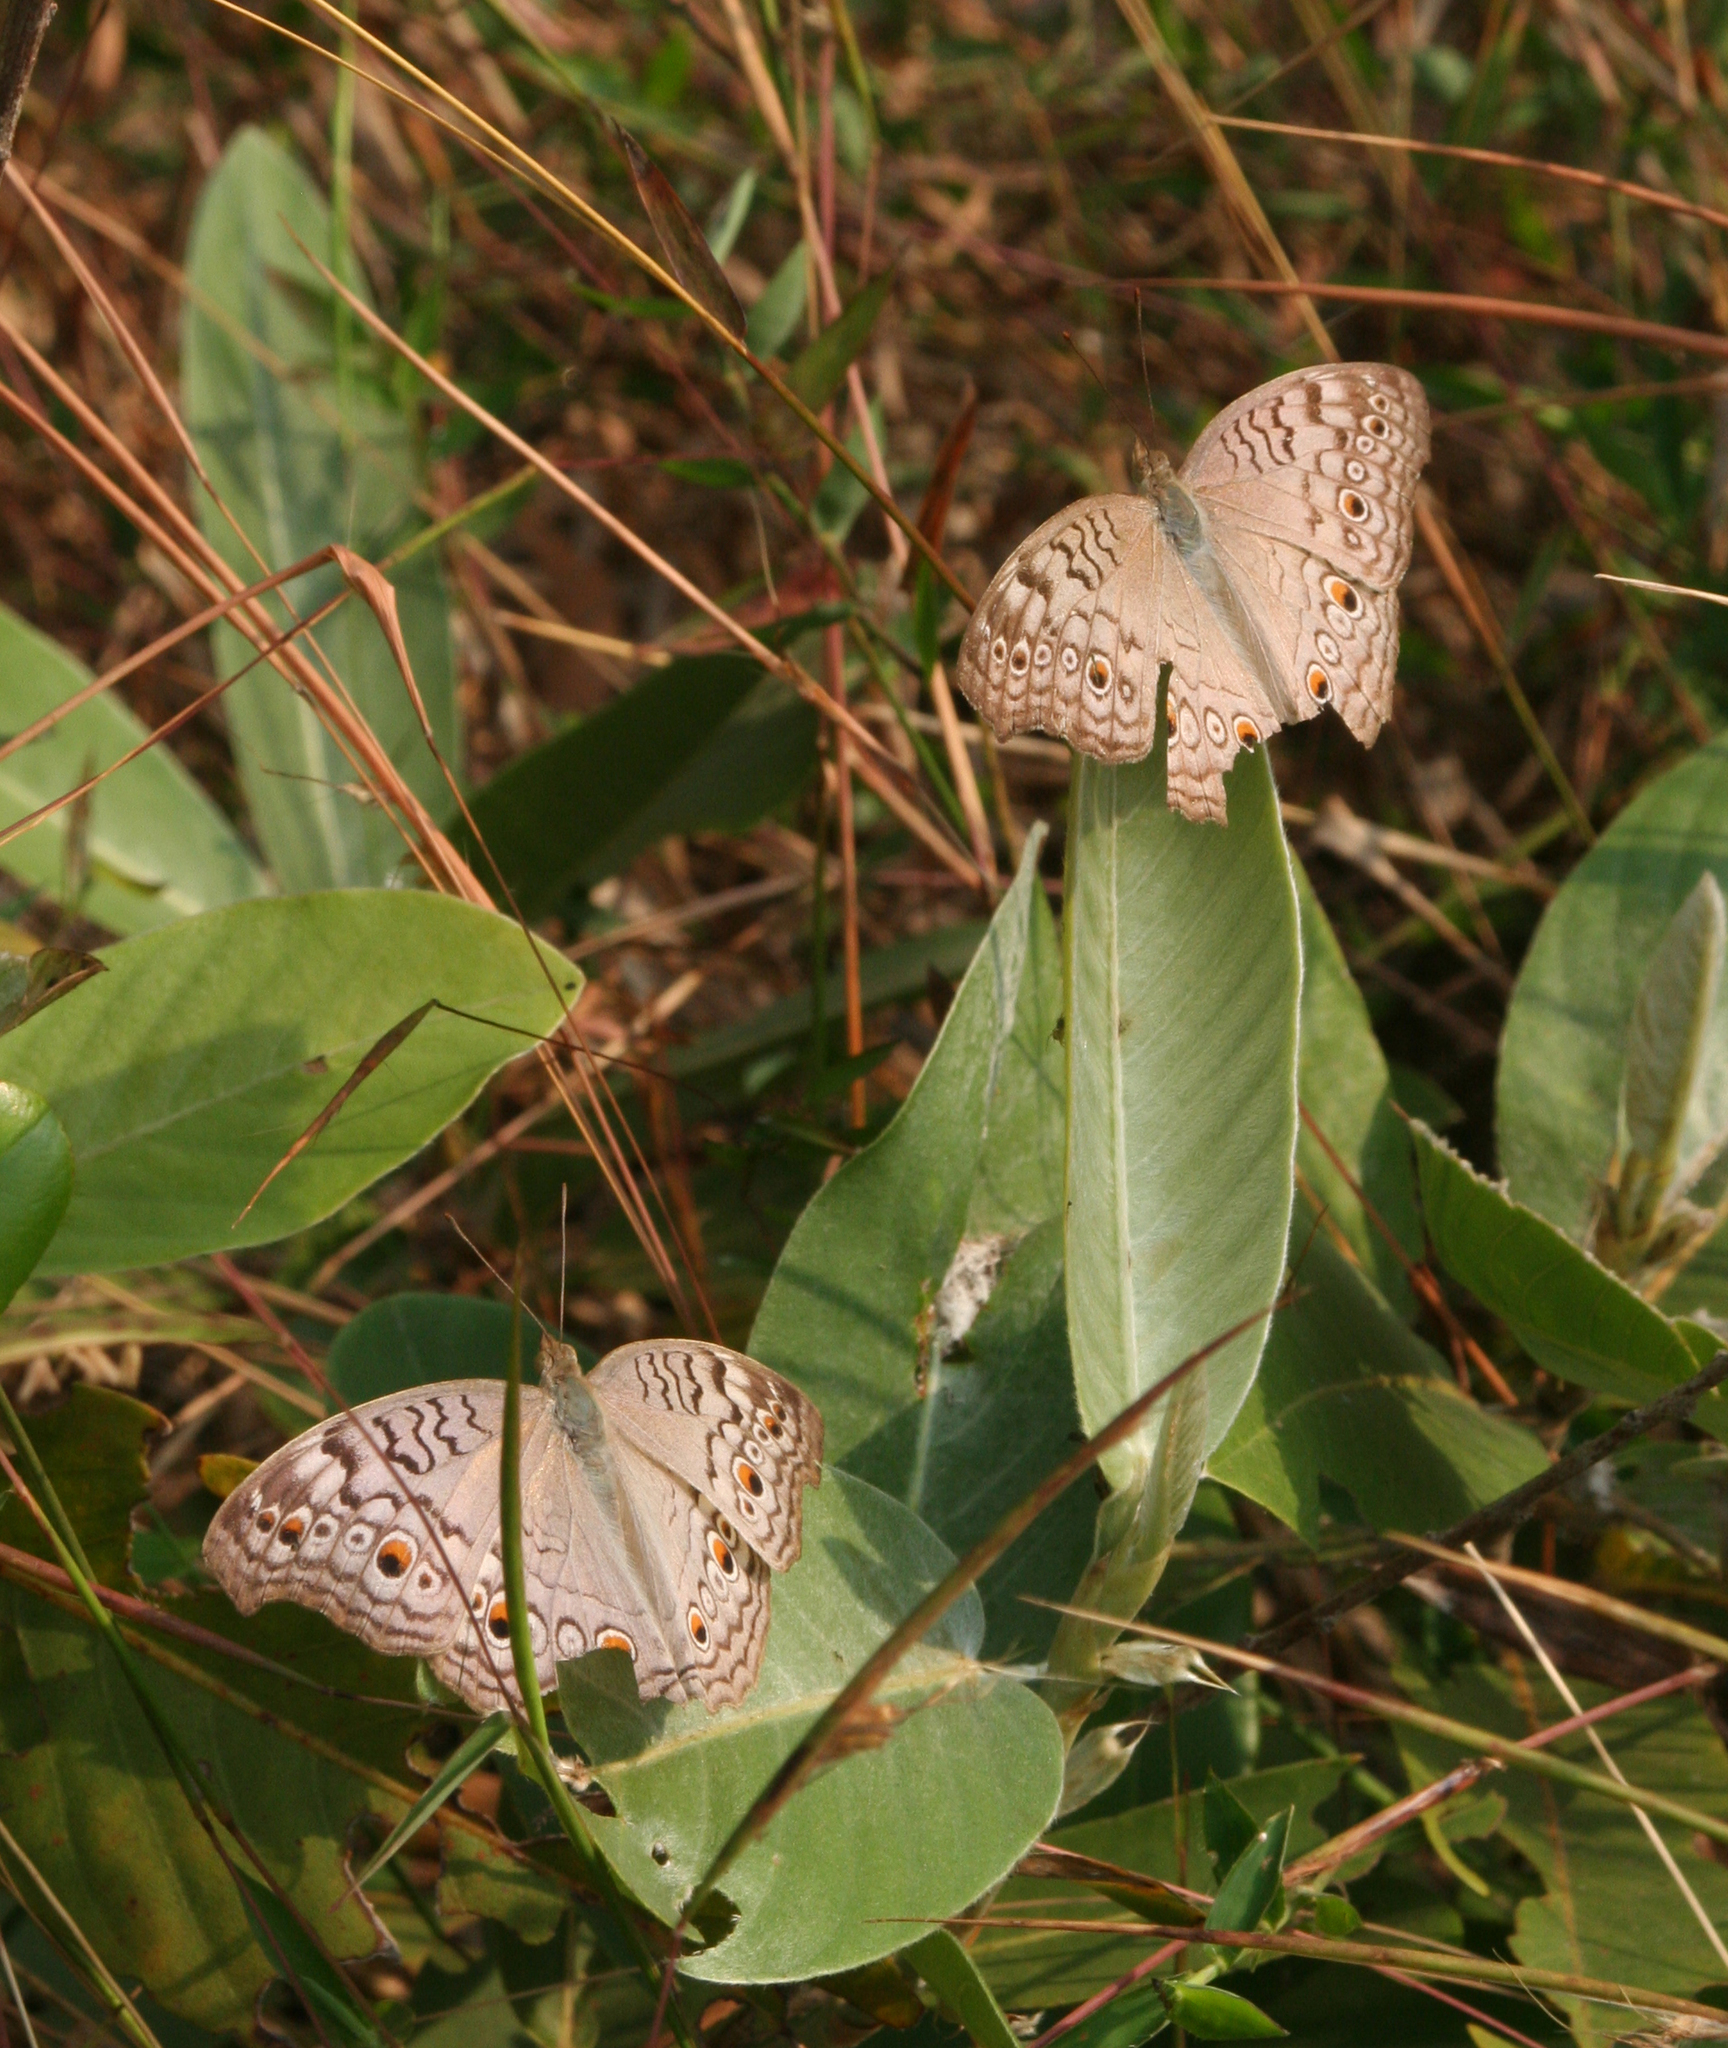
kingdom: Animalia
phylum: Arthropoda
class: Insecta
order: Lepidoptera
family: Nymphalidae
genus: Junonia
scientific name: Junonia atlites
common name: Grey pansy
